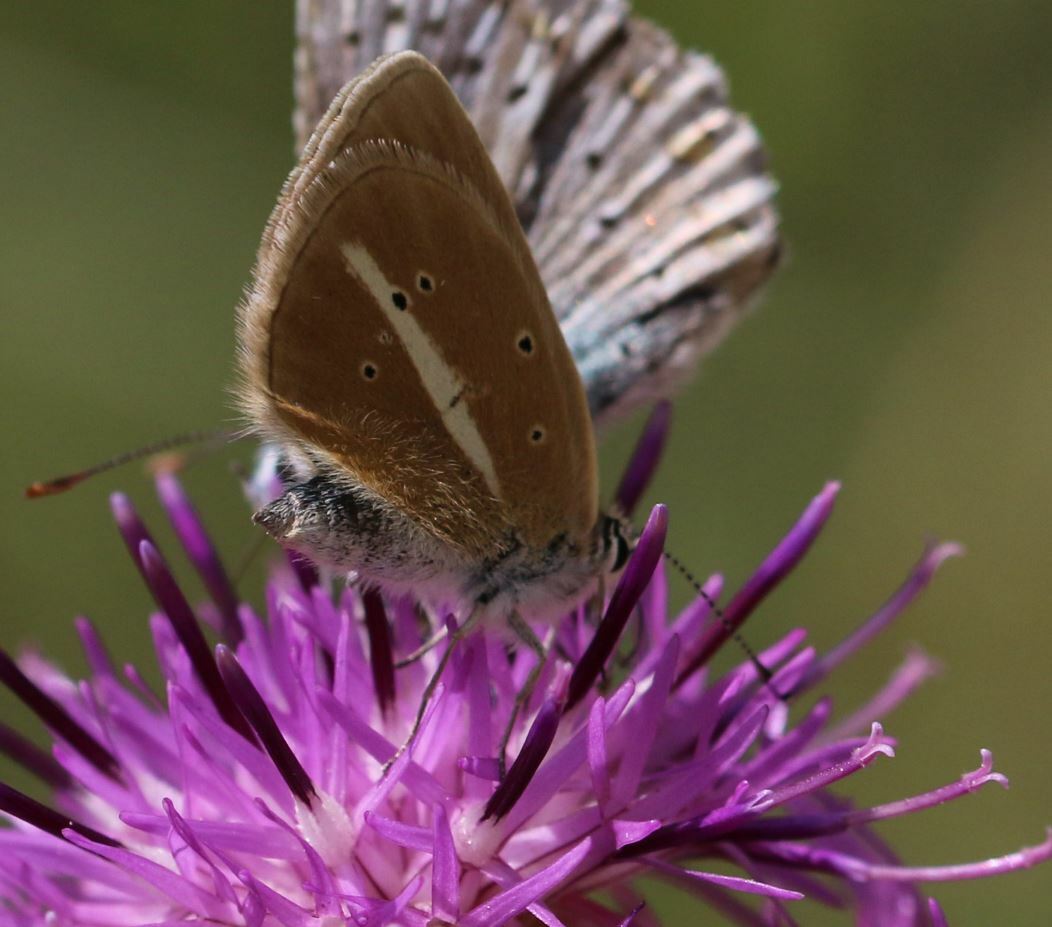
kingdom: Animalia
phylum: Arthropoda
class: Insecta
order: Lepidoptera
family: Lycaenidae
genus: Agrodiaetus
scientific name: Agrodiaetus damon
